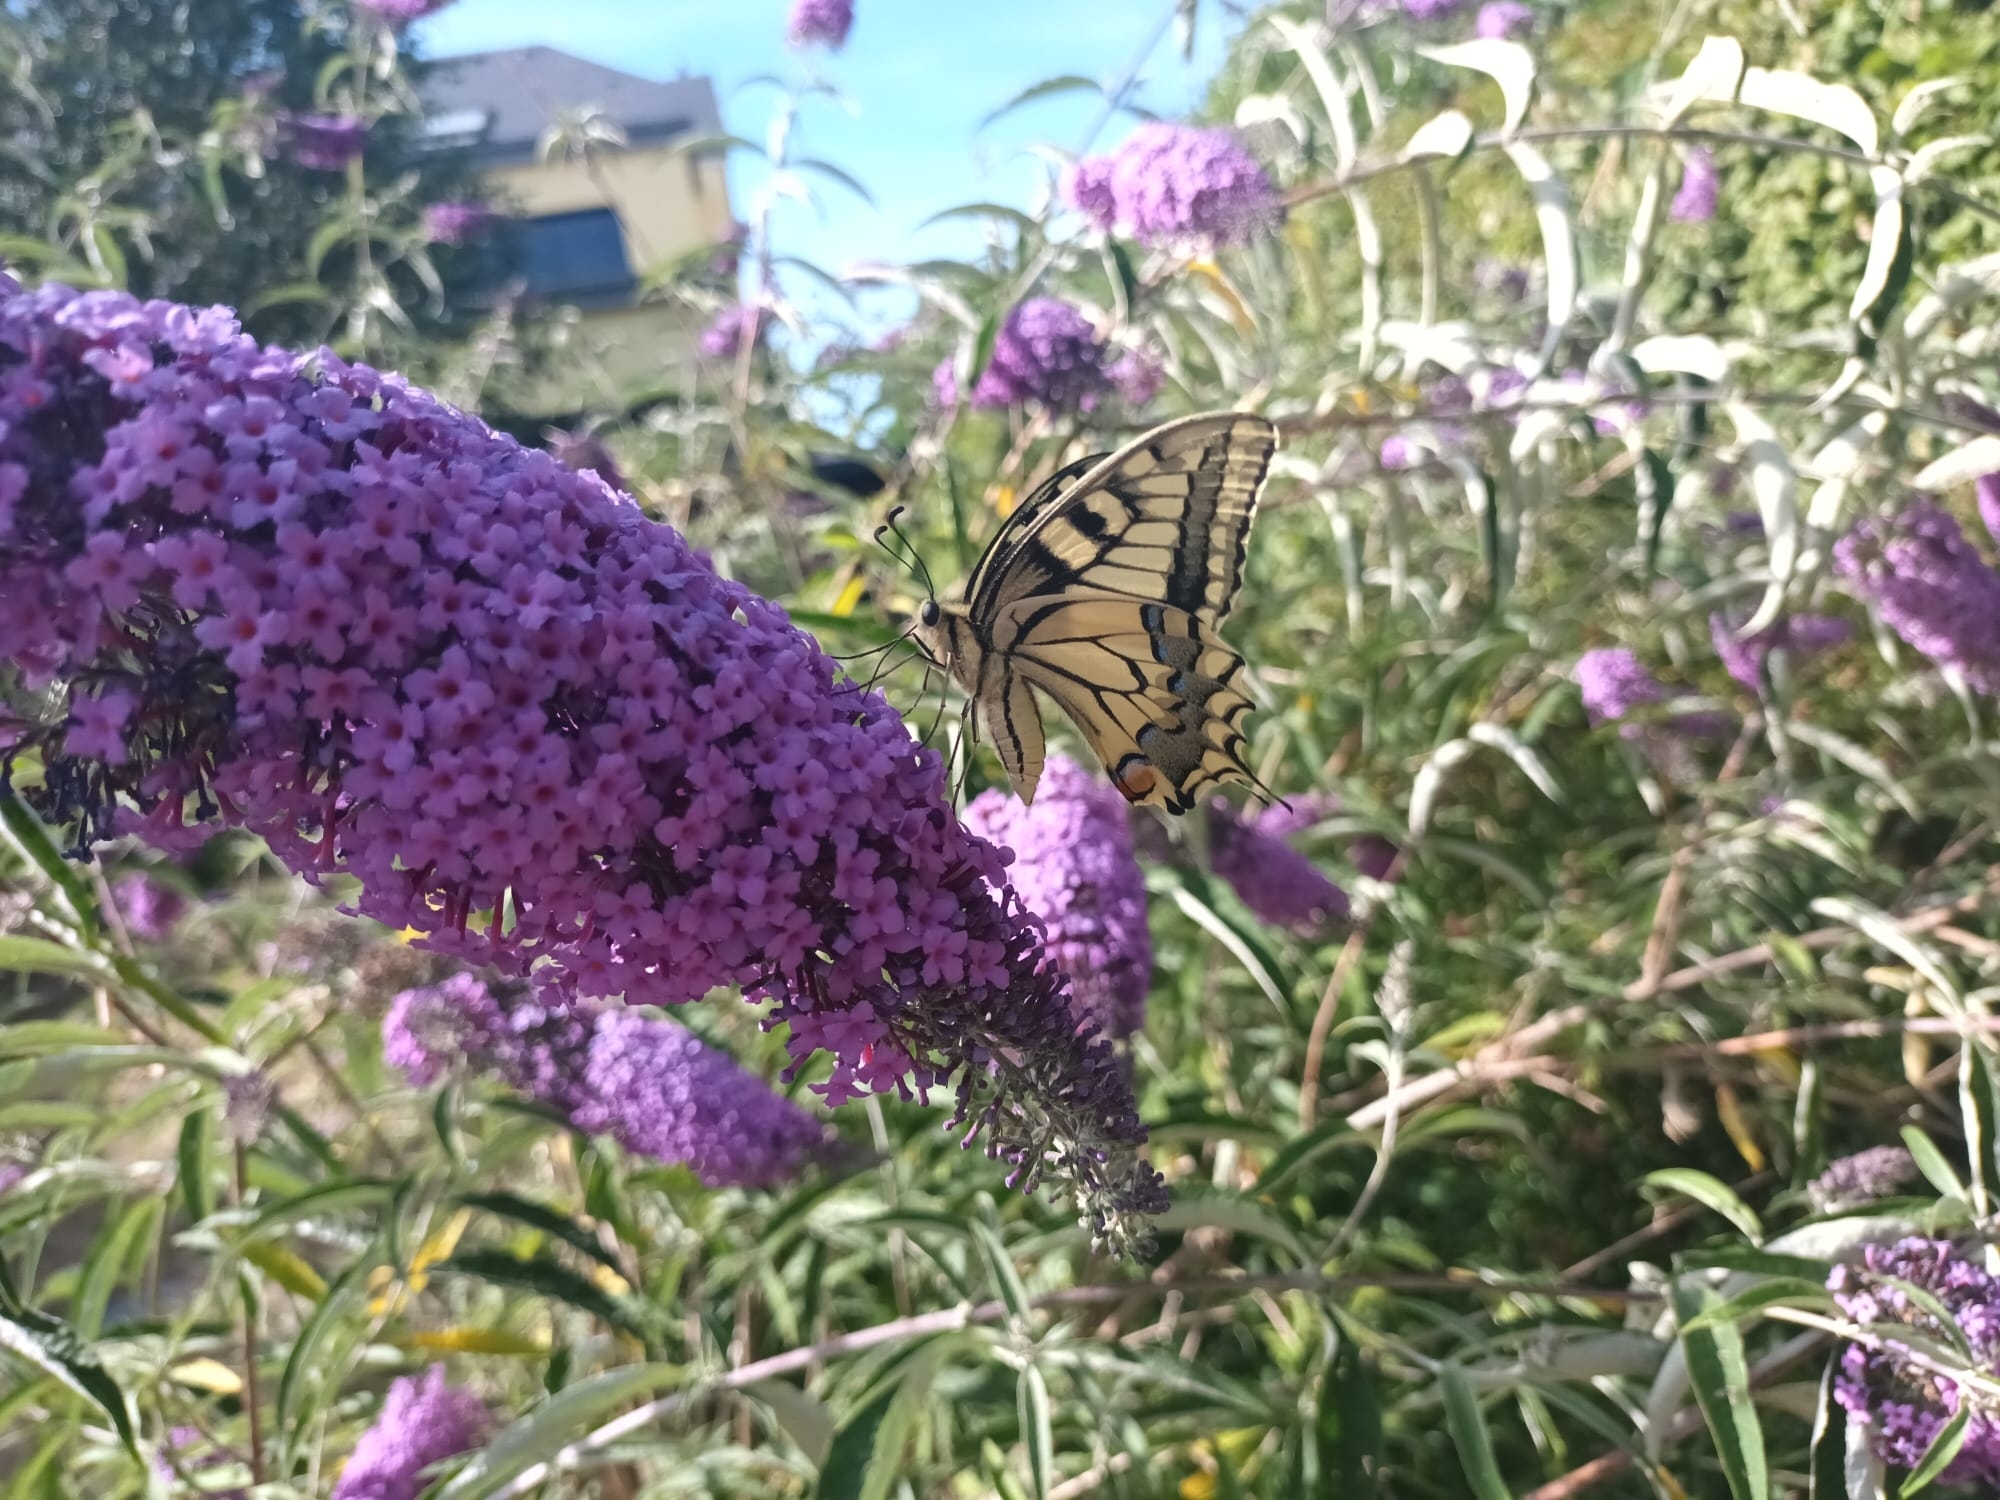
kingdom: Animalia
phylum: Arthropoda
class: Insecta
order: Lepidoptera
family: Papilionidae
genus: Papilio
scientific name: Papilio machaon
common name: Swallowtail
